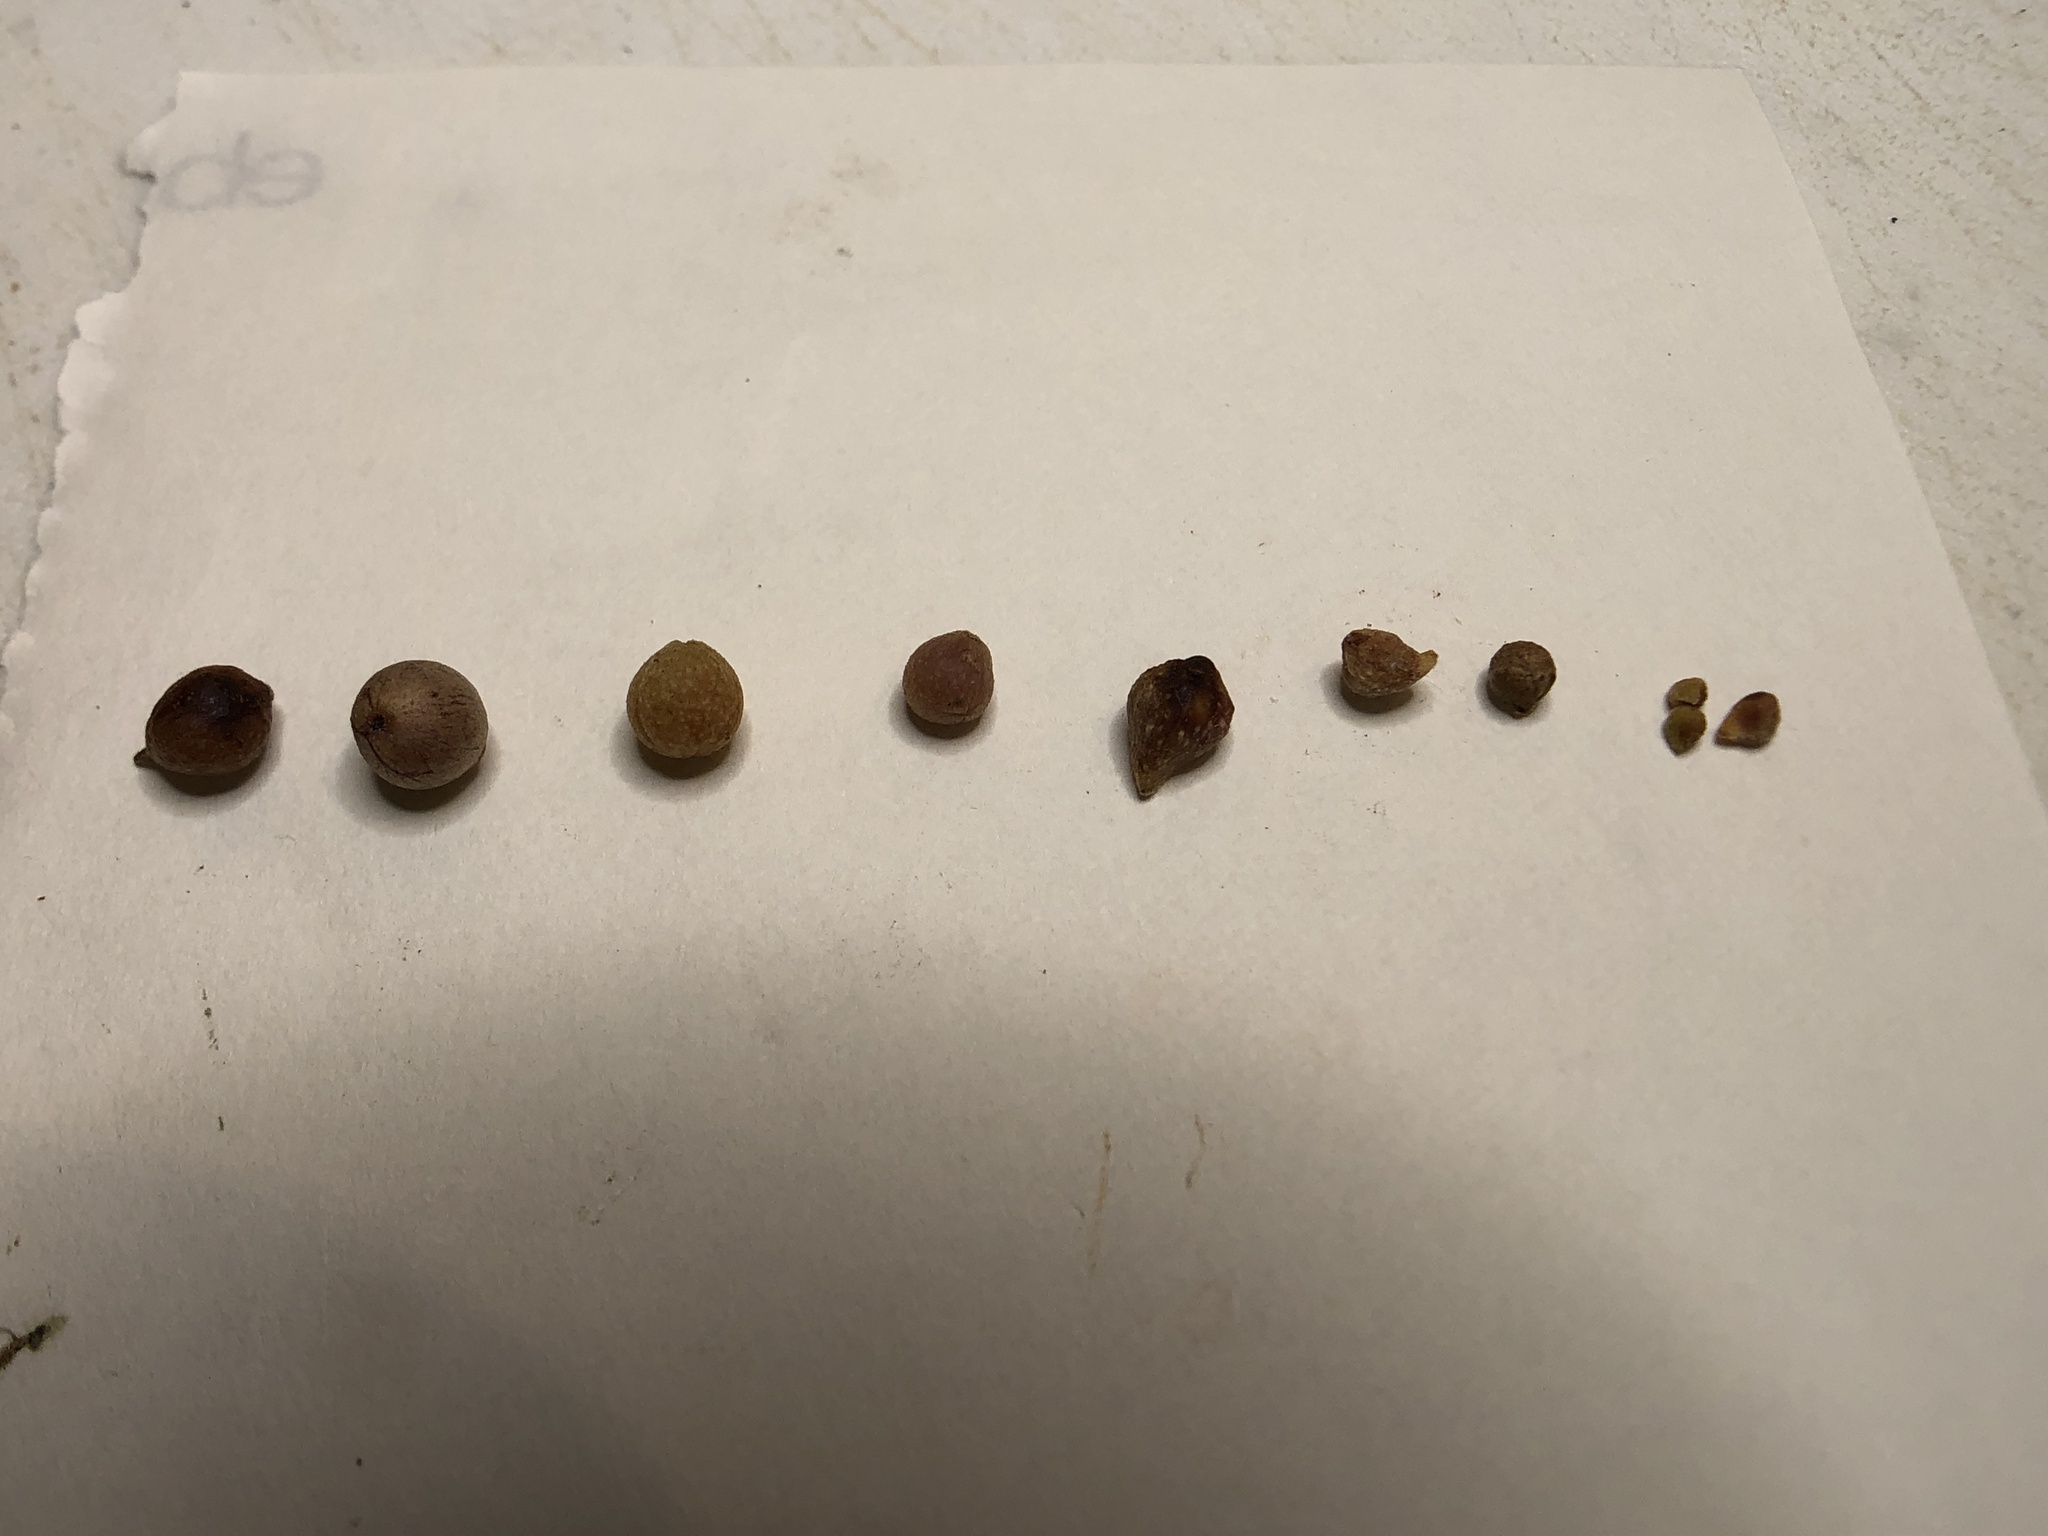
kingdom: Animalia
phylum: Arthropoda
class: Insecta
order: Hymenoptera
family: Cynipidae
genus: Andricus
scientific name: Andricus
